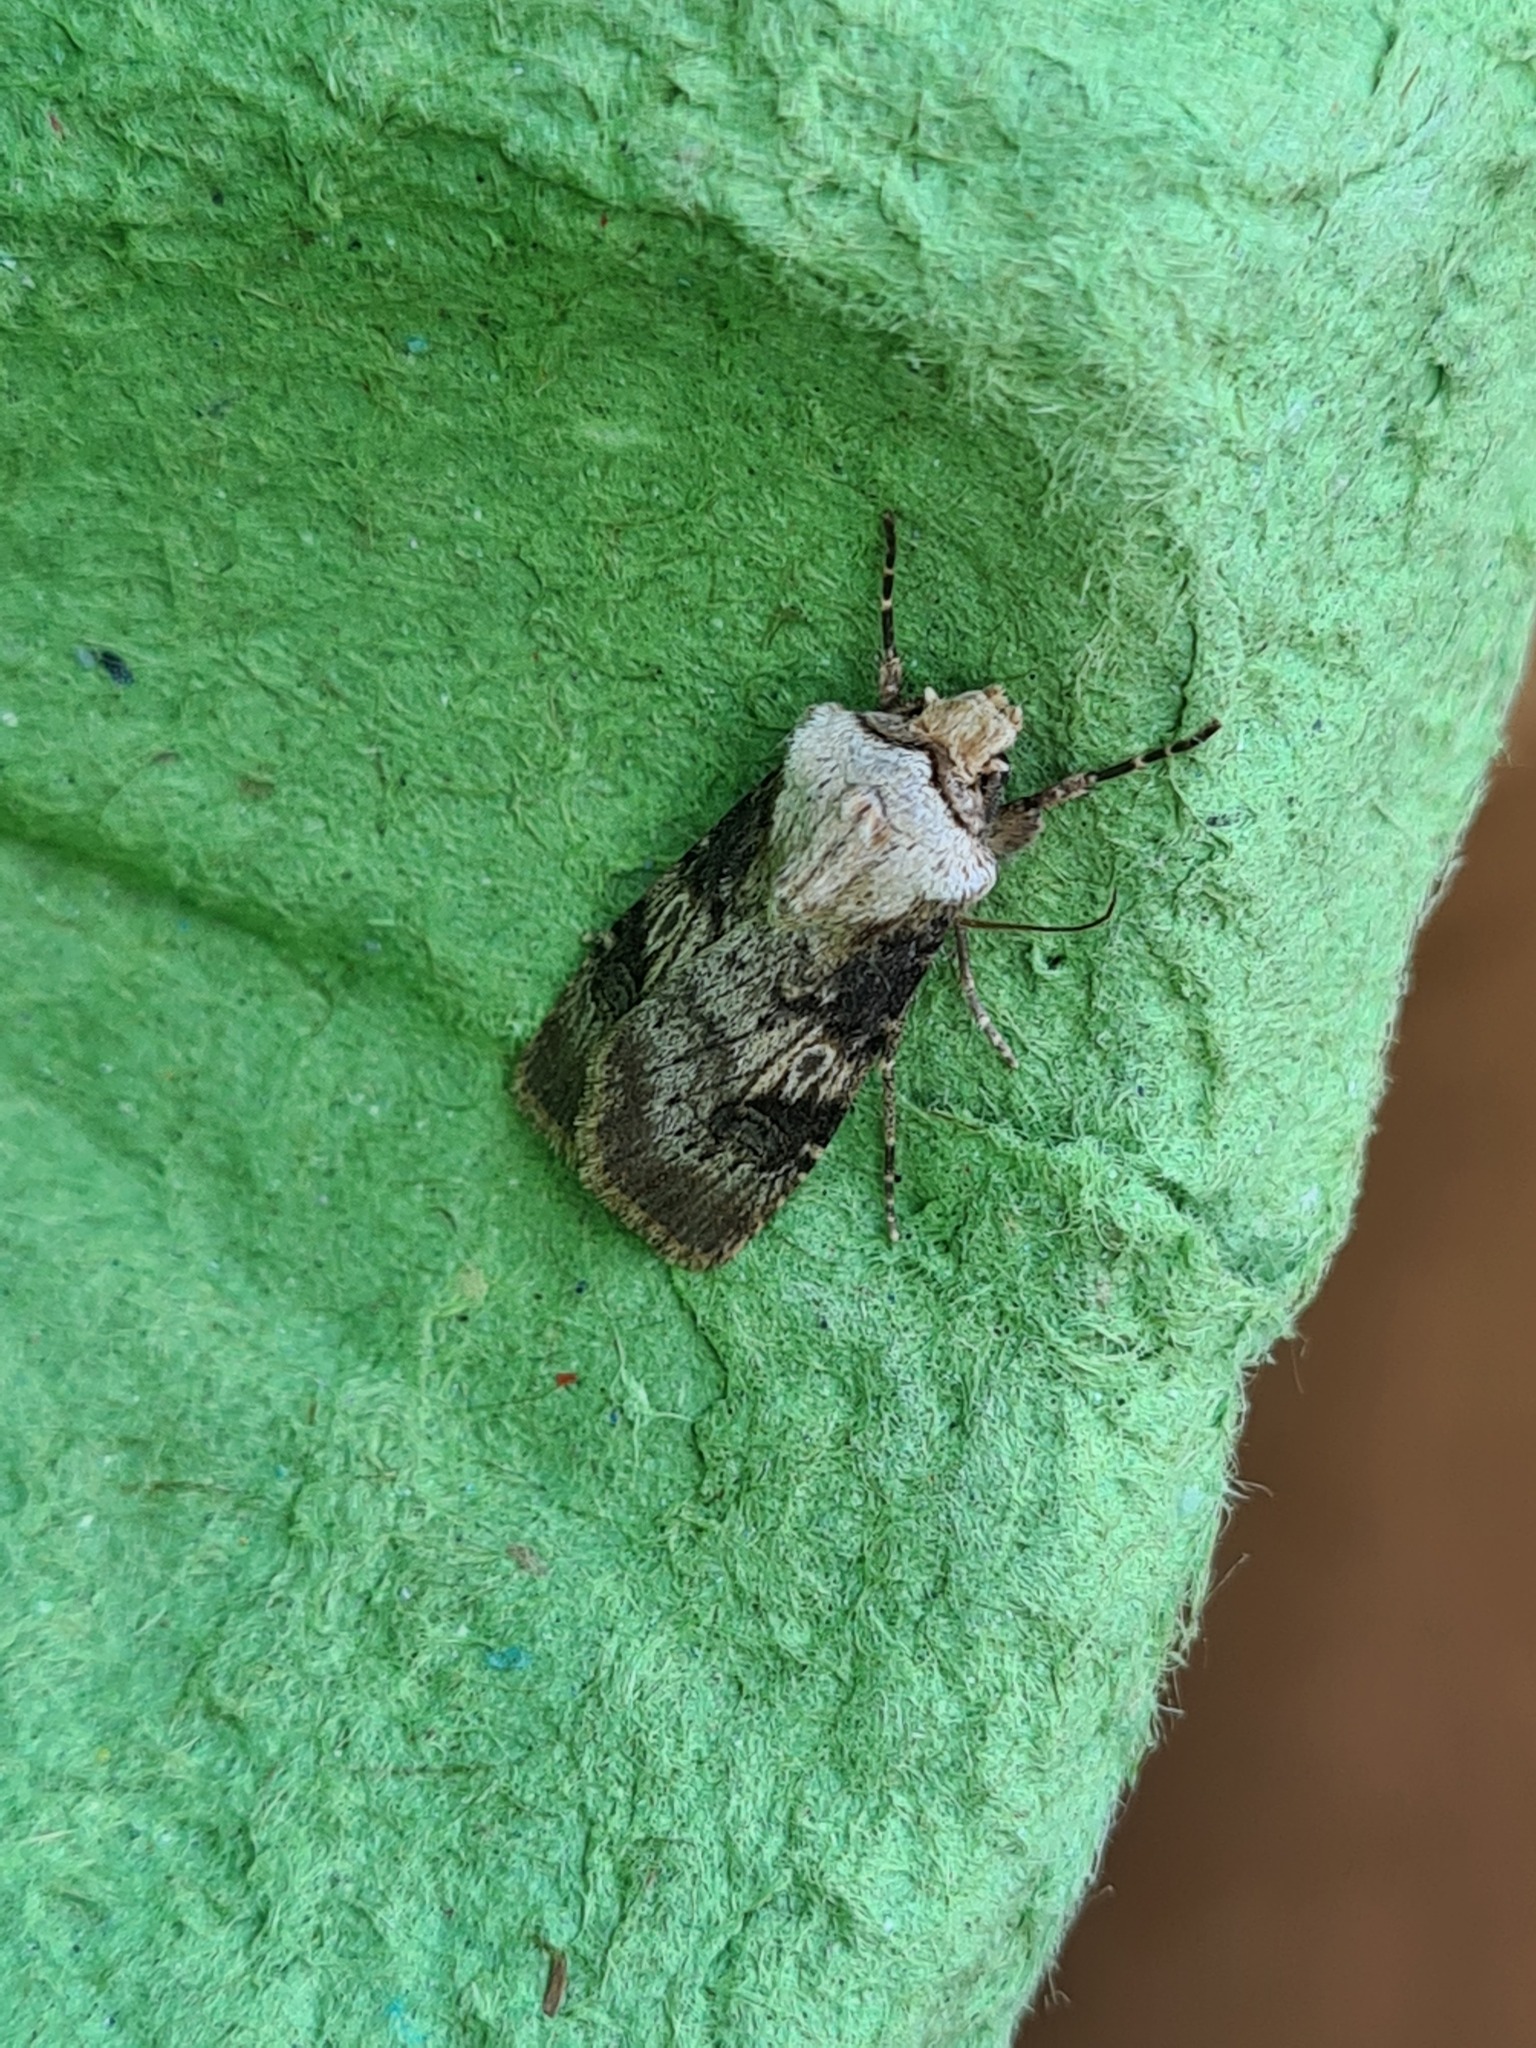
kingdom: Animalia
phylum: Arthropoda
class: Insecta
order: Lepidoptera
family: Noctuidae
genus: Agrotis
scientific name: Agrotis puta
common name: Shuttle-shaped dart
